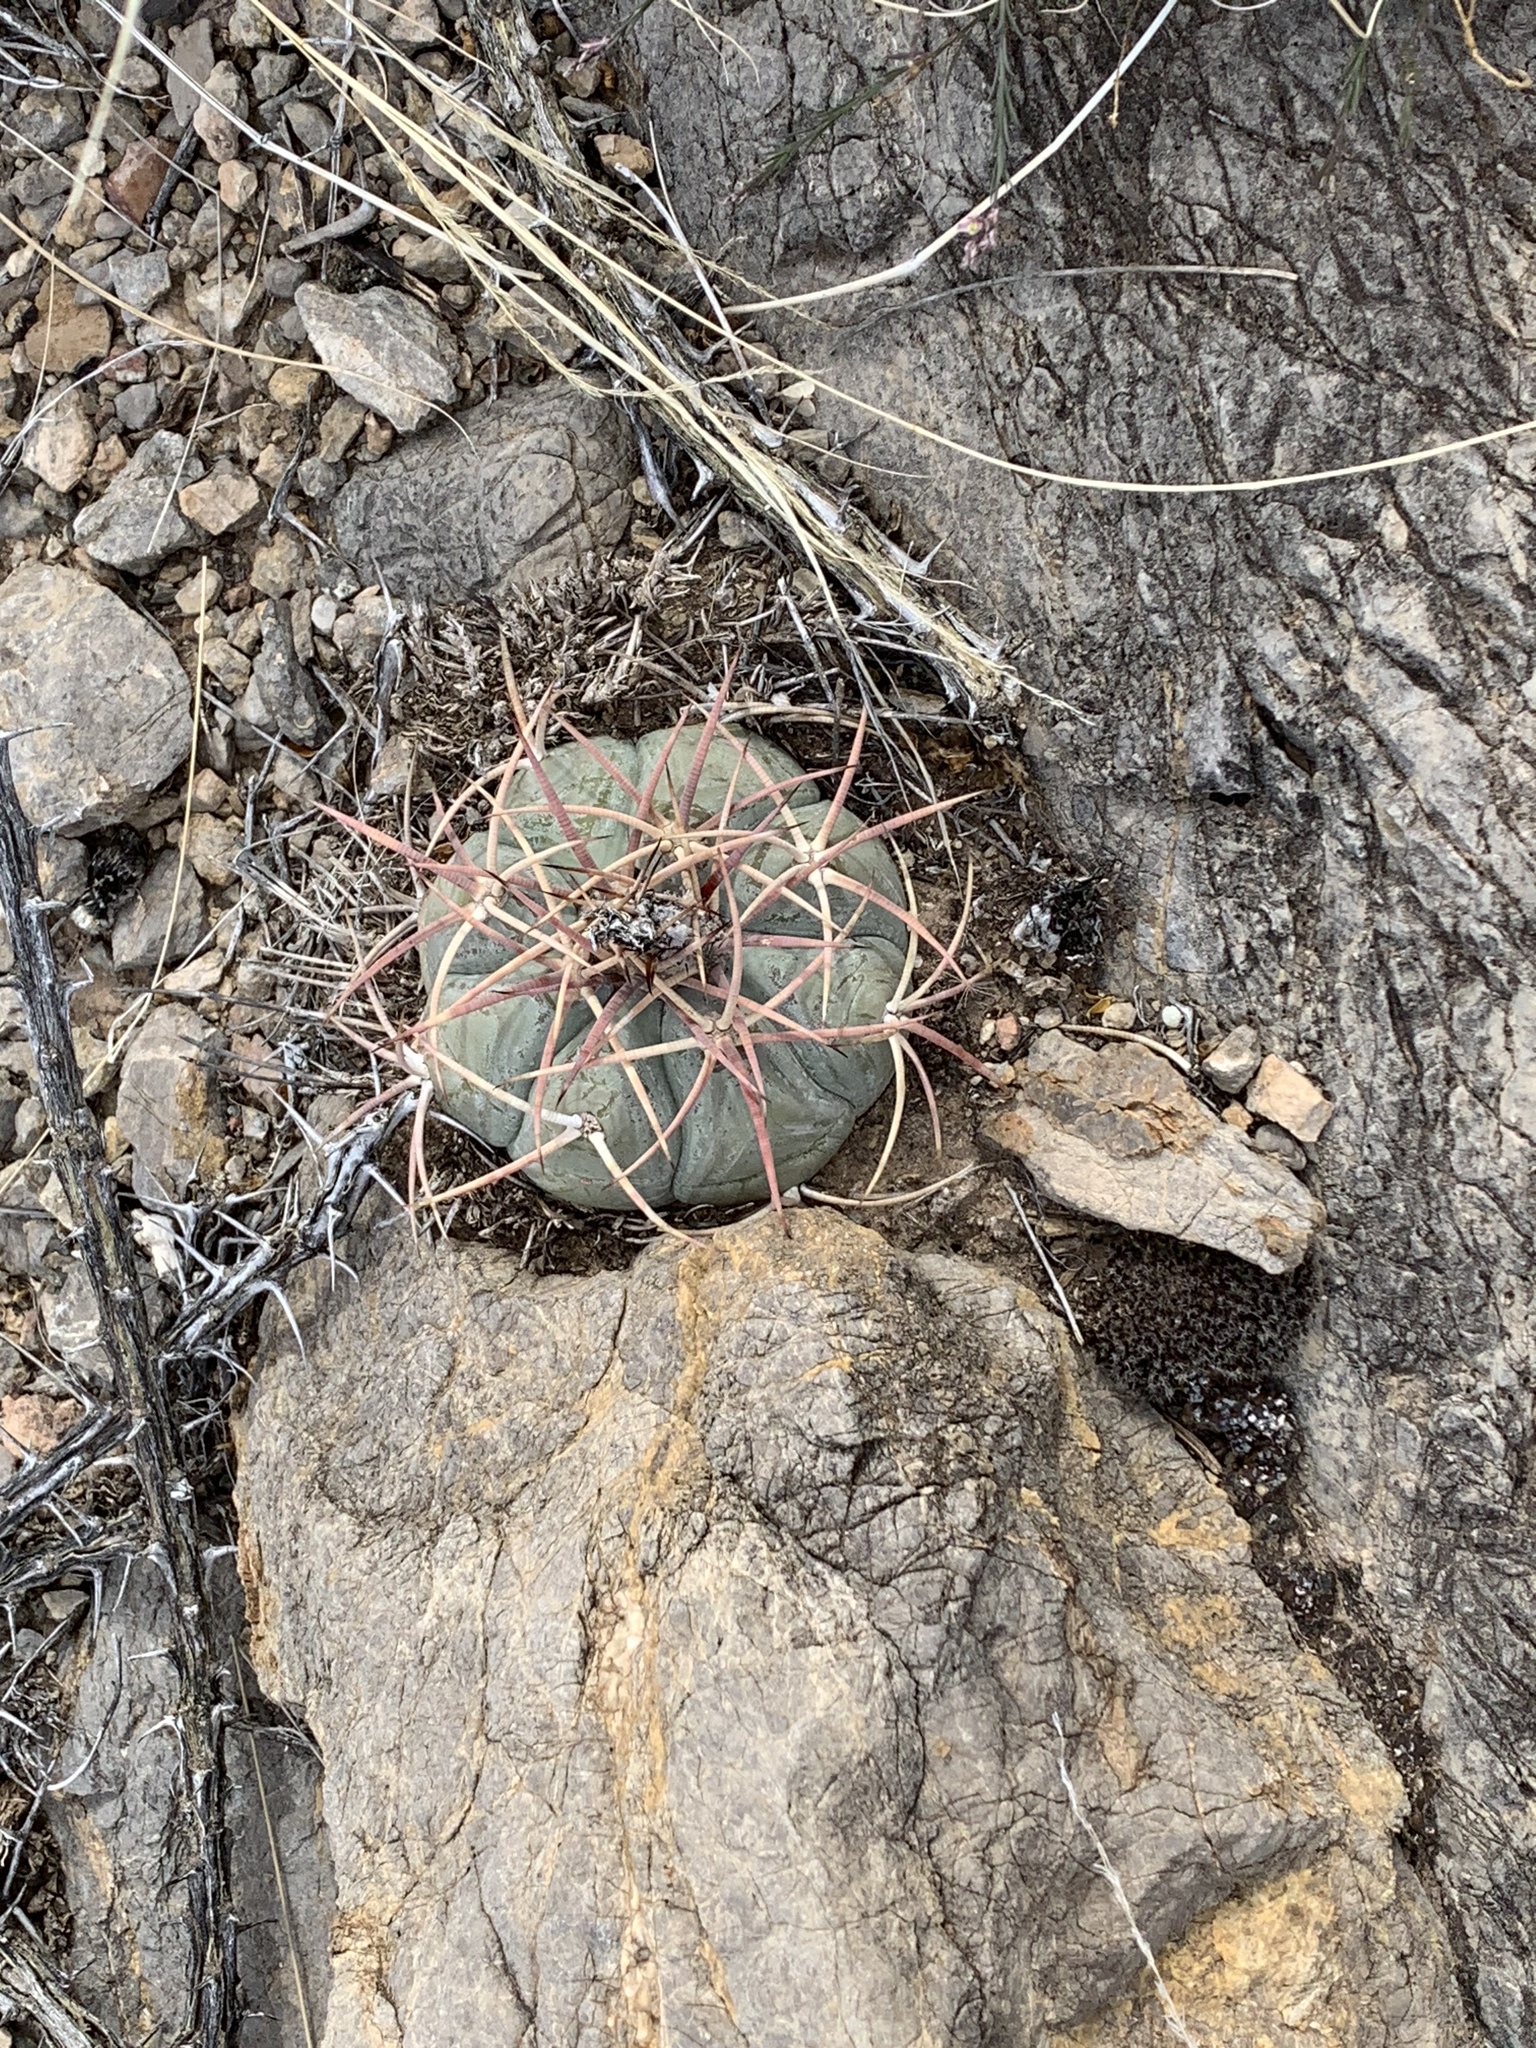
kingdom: Plantae
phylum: Tracheophyta
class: Magnoliopsida
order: Caryophyllales
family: Cactaceae
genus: Echinocactus
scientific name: Echinocactus horizonthalonius
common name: Devilshead
